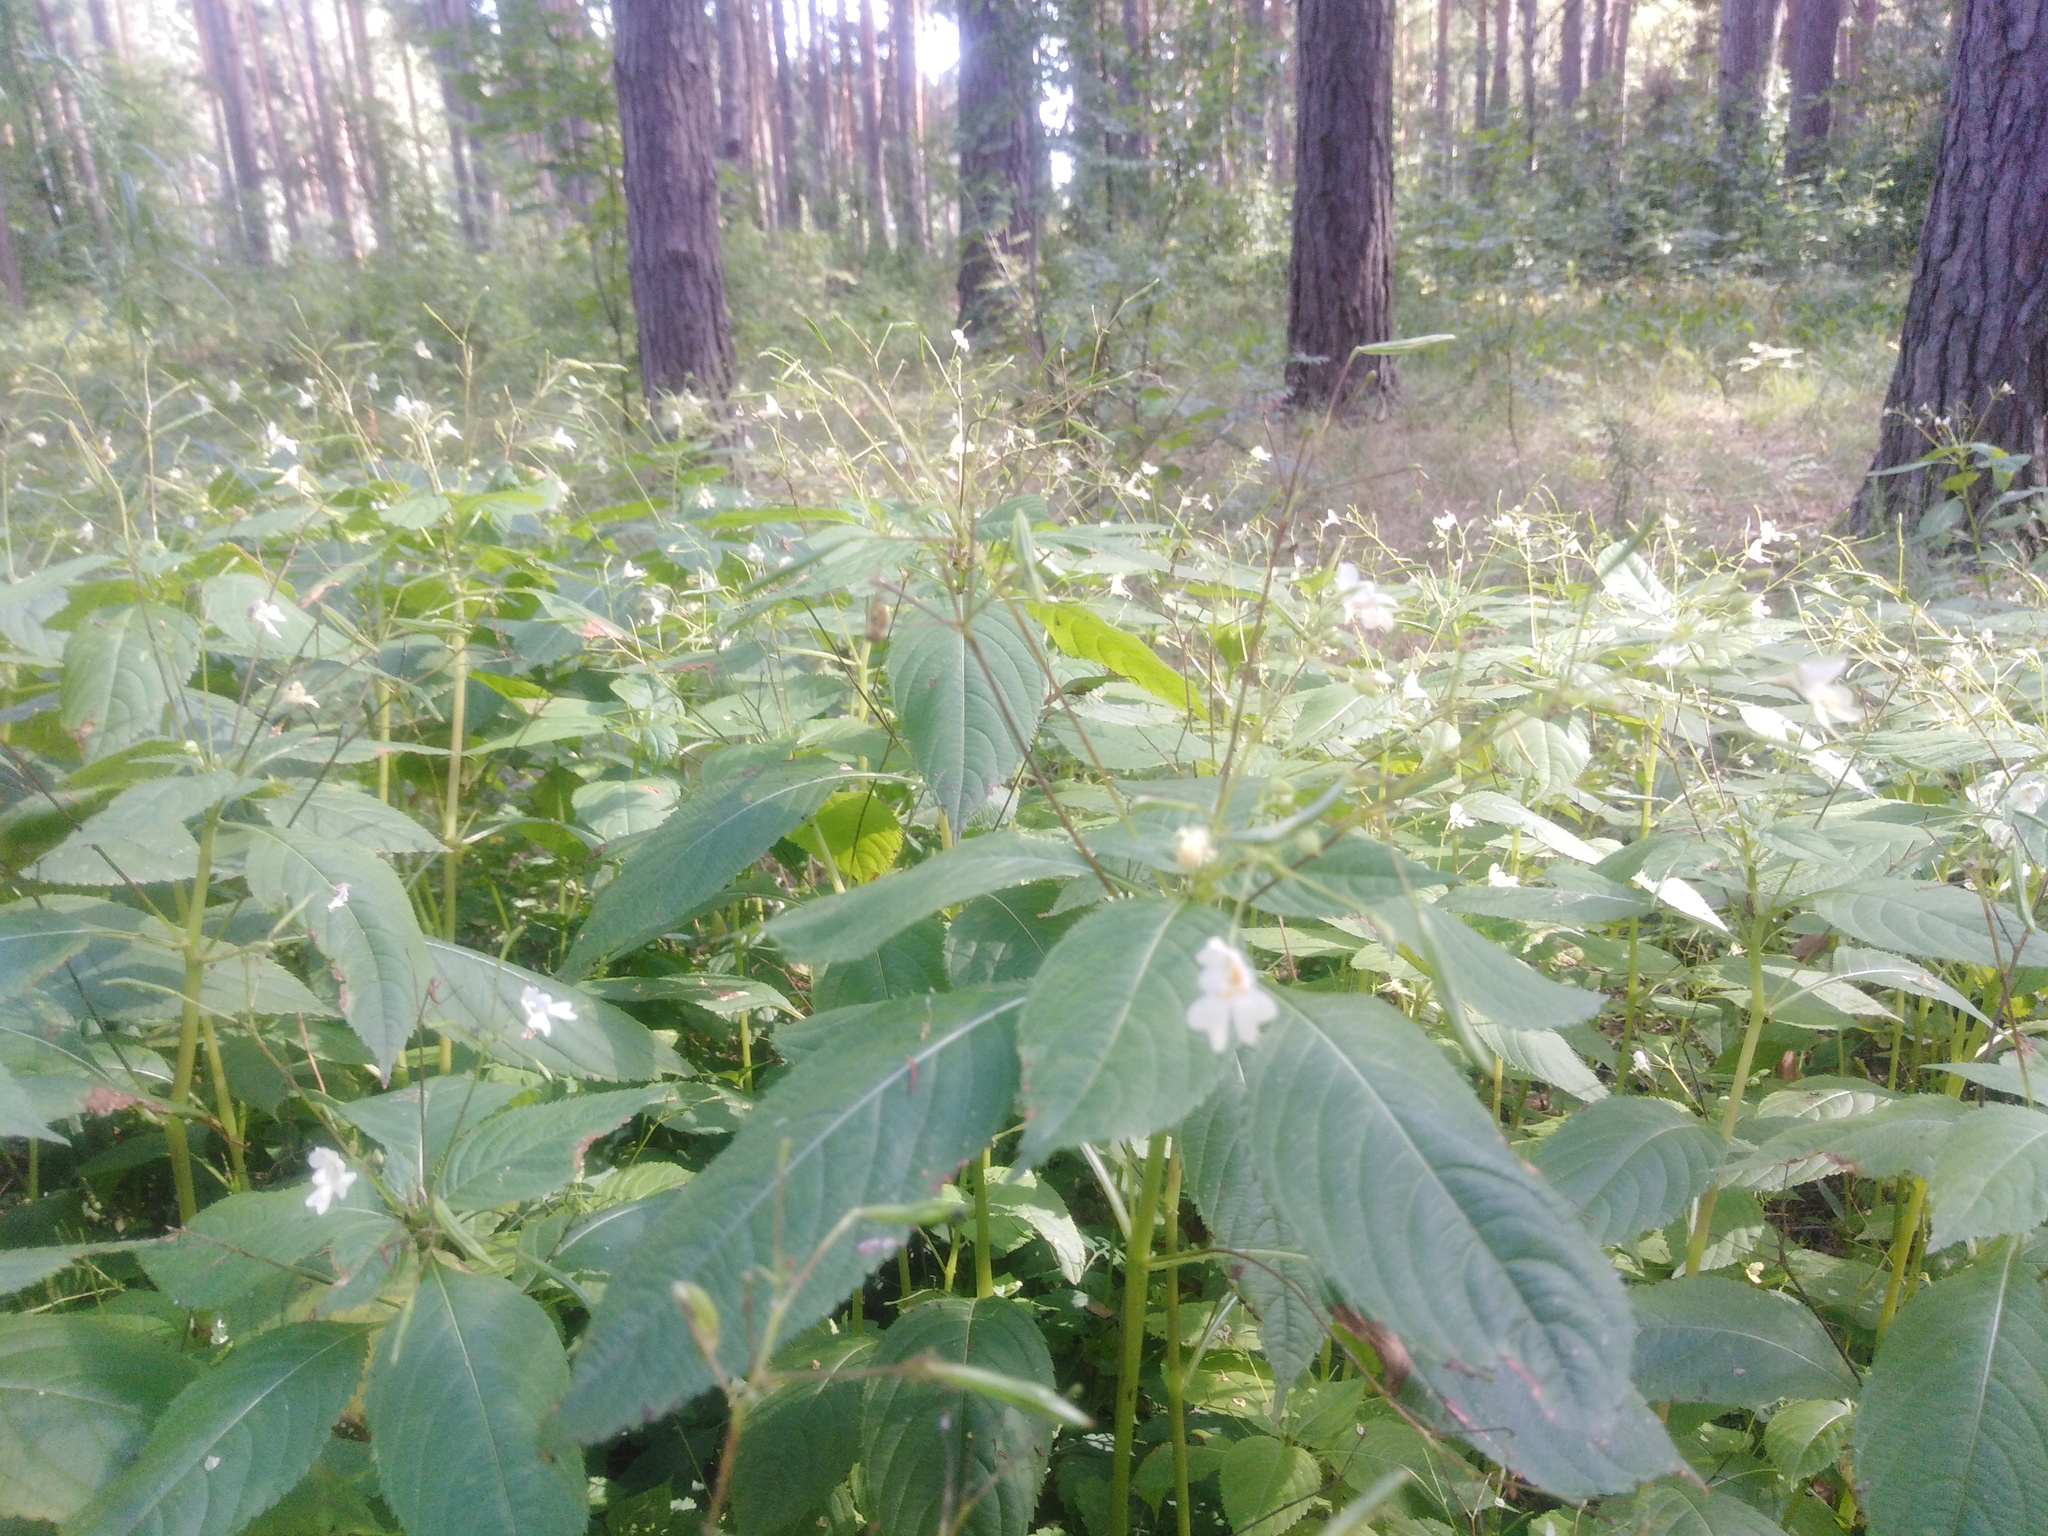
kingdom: Plantae
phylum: Tracheophyta
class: Magnoliopsida
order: Ericales
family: Balsaminaceae
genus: Impatiens
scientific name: Impatiens parviflora
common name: Small balsam
